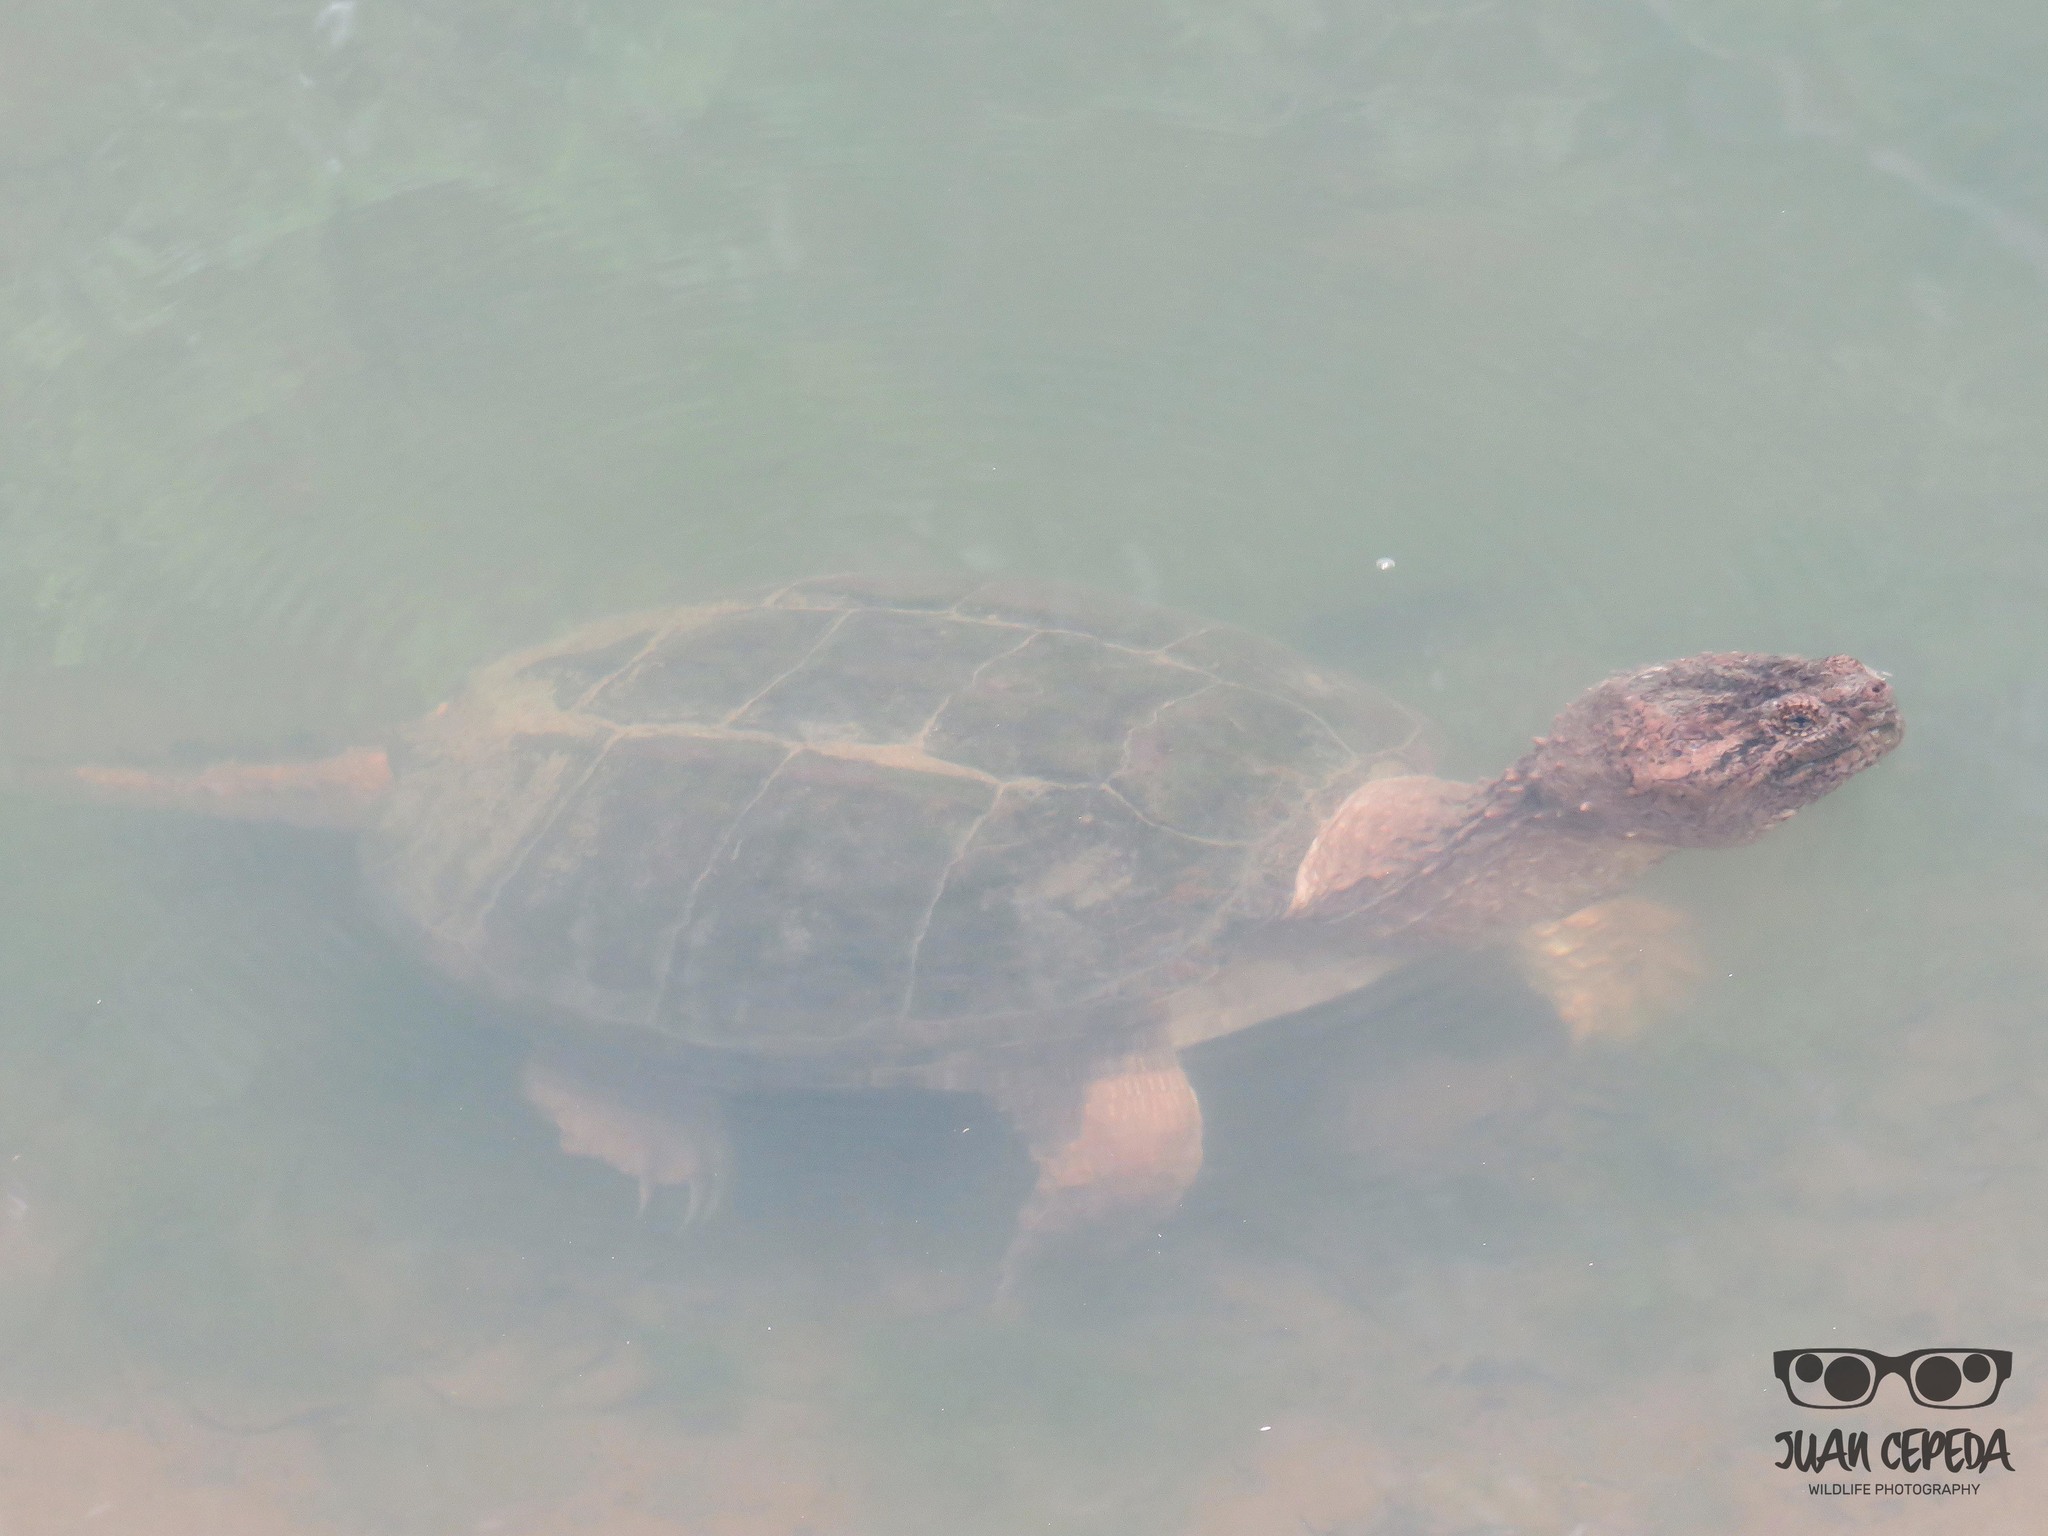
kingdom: Animalia
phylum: Chordata
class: Testudines
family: Chelydridae
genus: Chelydra
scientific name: Chelydra serpentina
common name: Common snapping turtle
